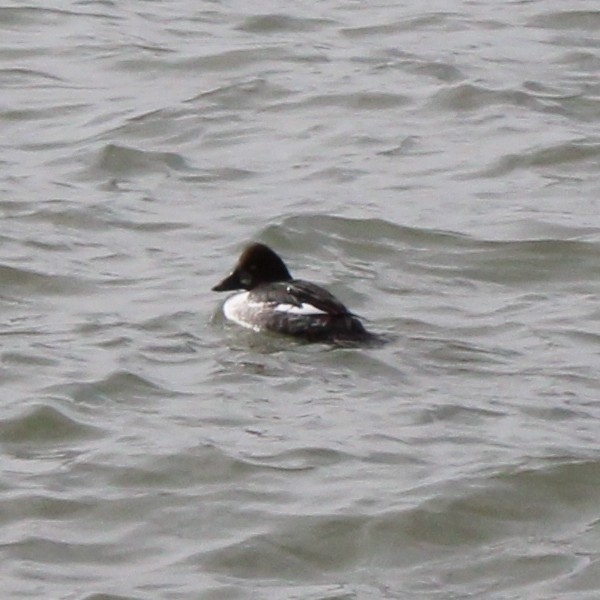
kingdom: Animalia
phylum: Chordata
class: Aves
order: Anseriformes
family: Anatidae
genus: Bucephala
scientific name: Bucephala clangula
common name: Common goldeneye
